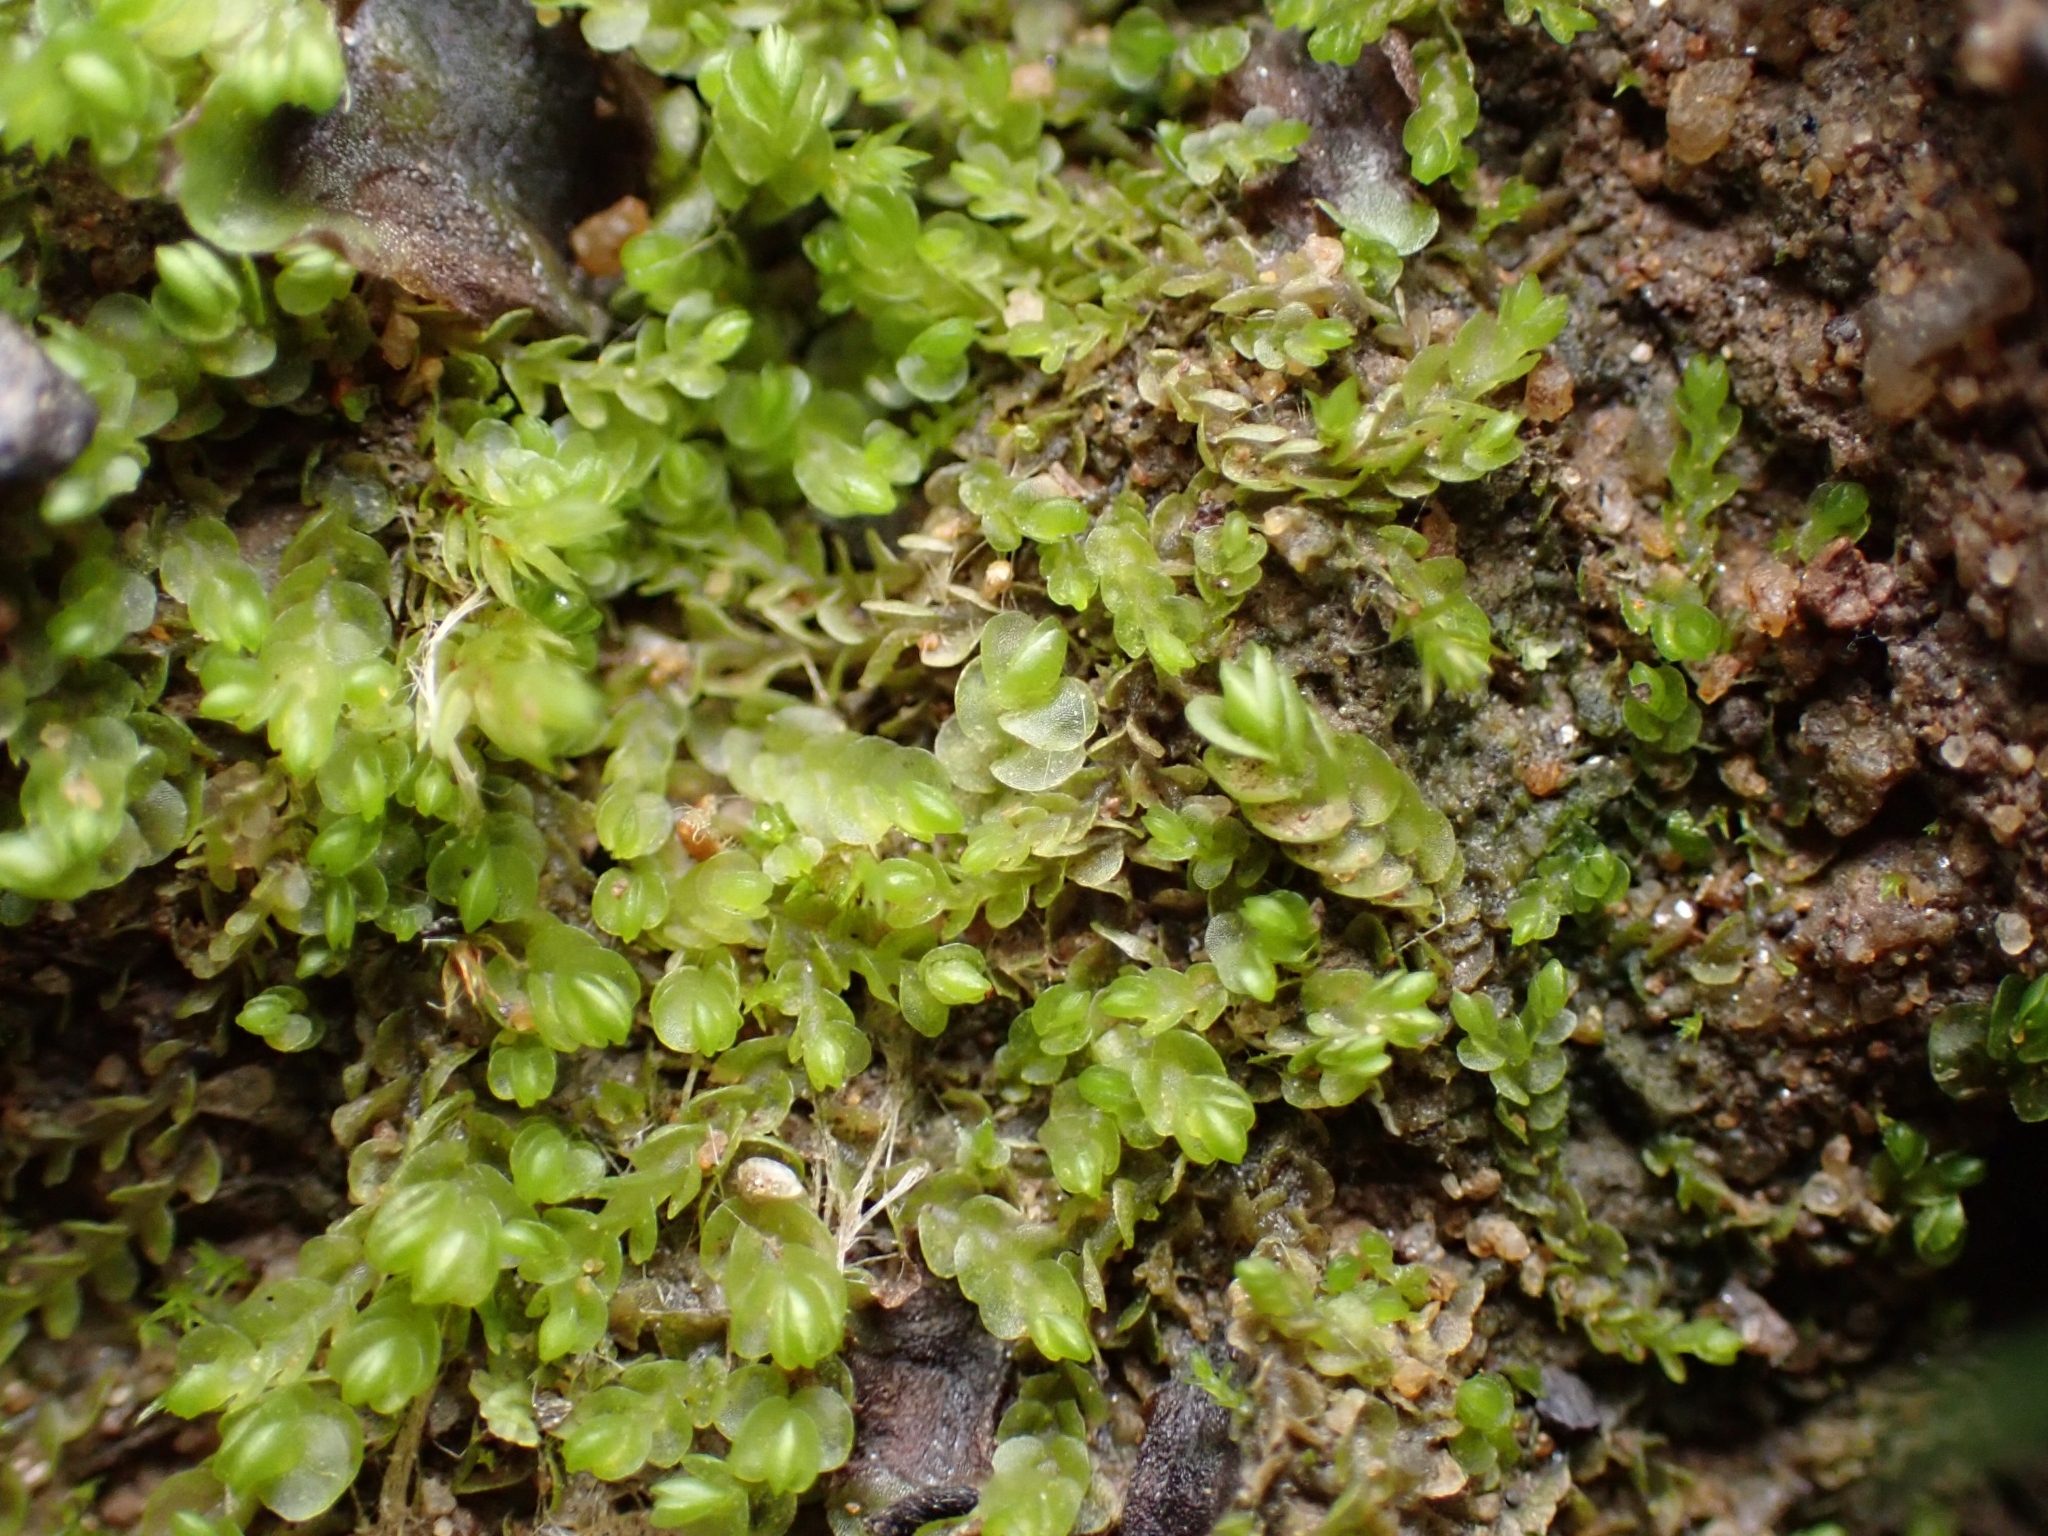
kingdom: Plantae
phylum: Marchantiophyta
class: Jungermanniopsida
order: Jungermanniales
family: Gymnomitriaceae
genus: Nardia
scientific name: Nardia scalaris
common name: Ladder flapwort
